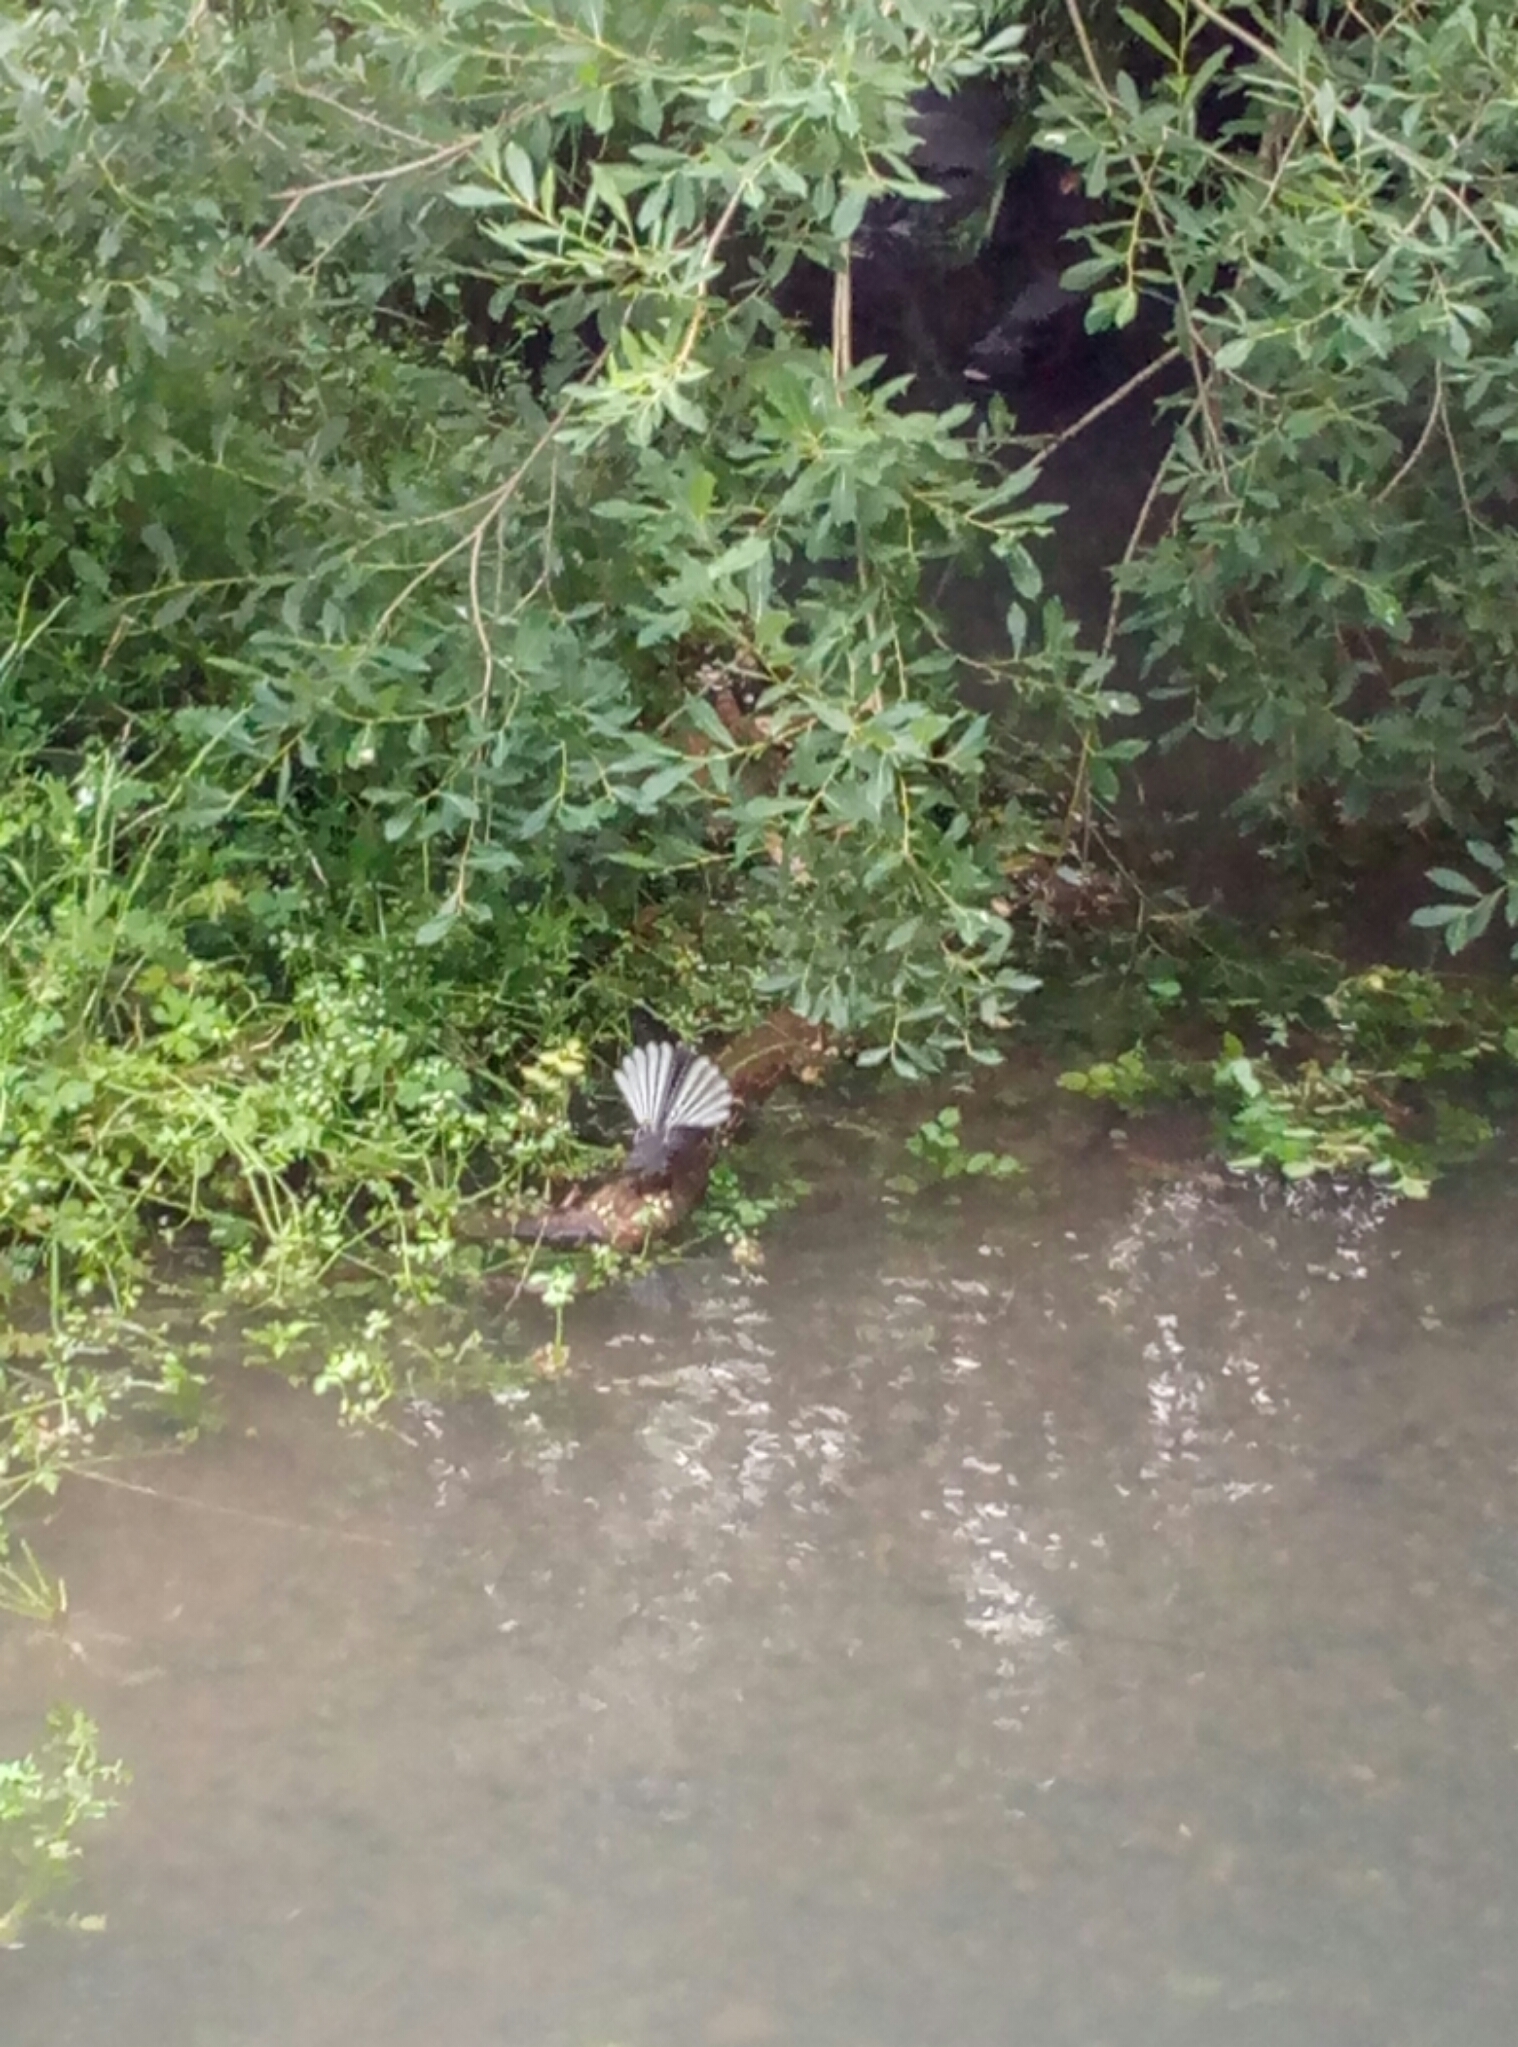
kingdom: Animalia
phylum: Chordata
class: Aves
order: Passeriformes
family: Rhipiduridae
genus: Rhipidura
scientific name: Rhipidura fuliginosa
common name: New zealand fantail
